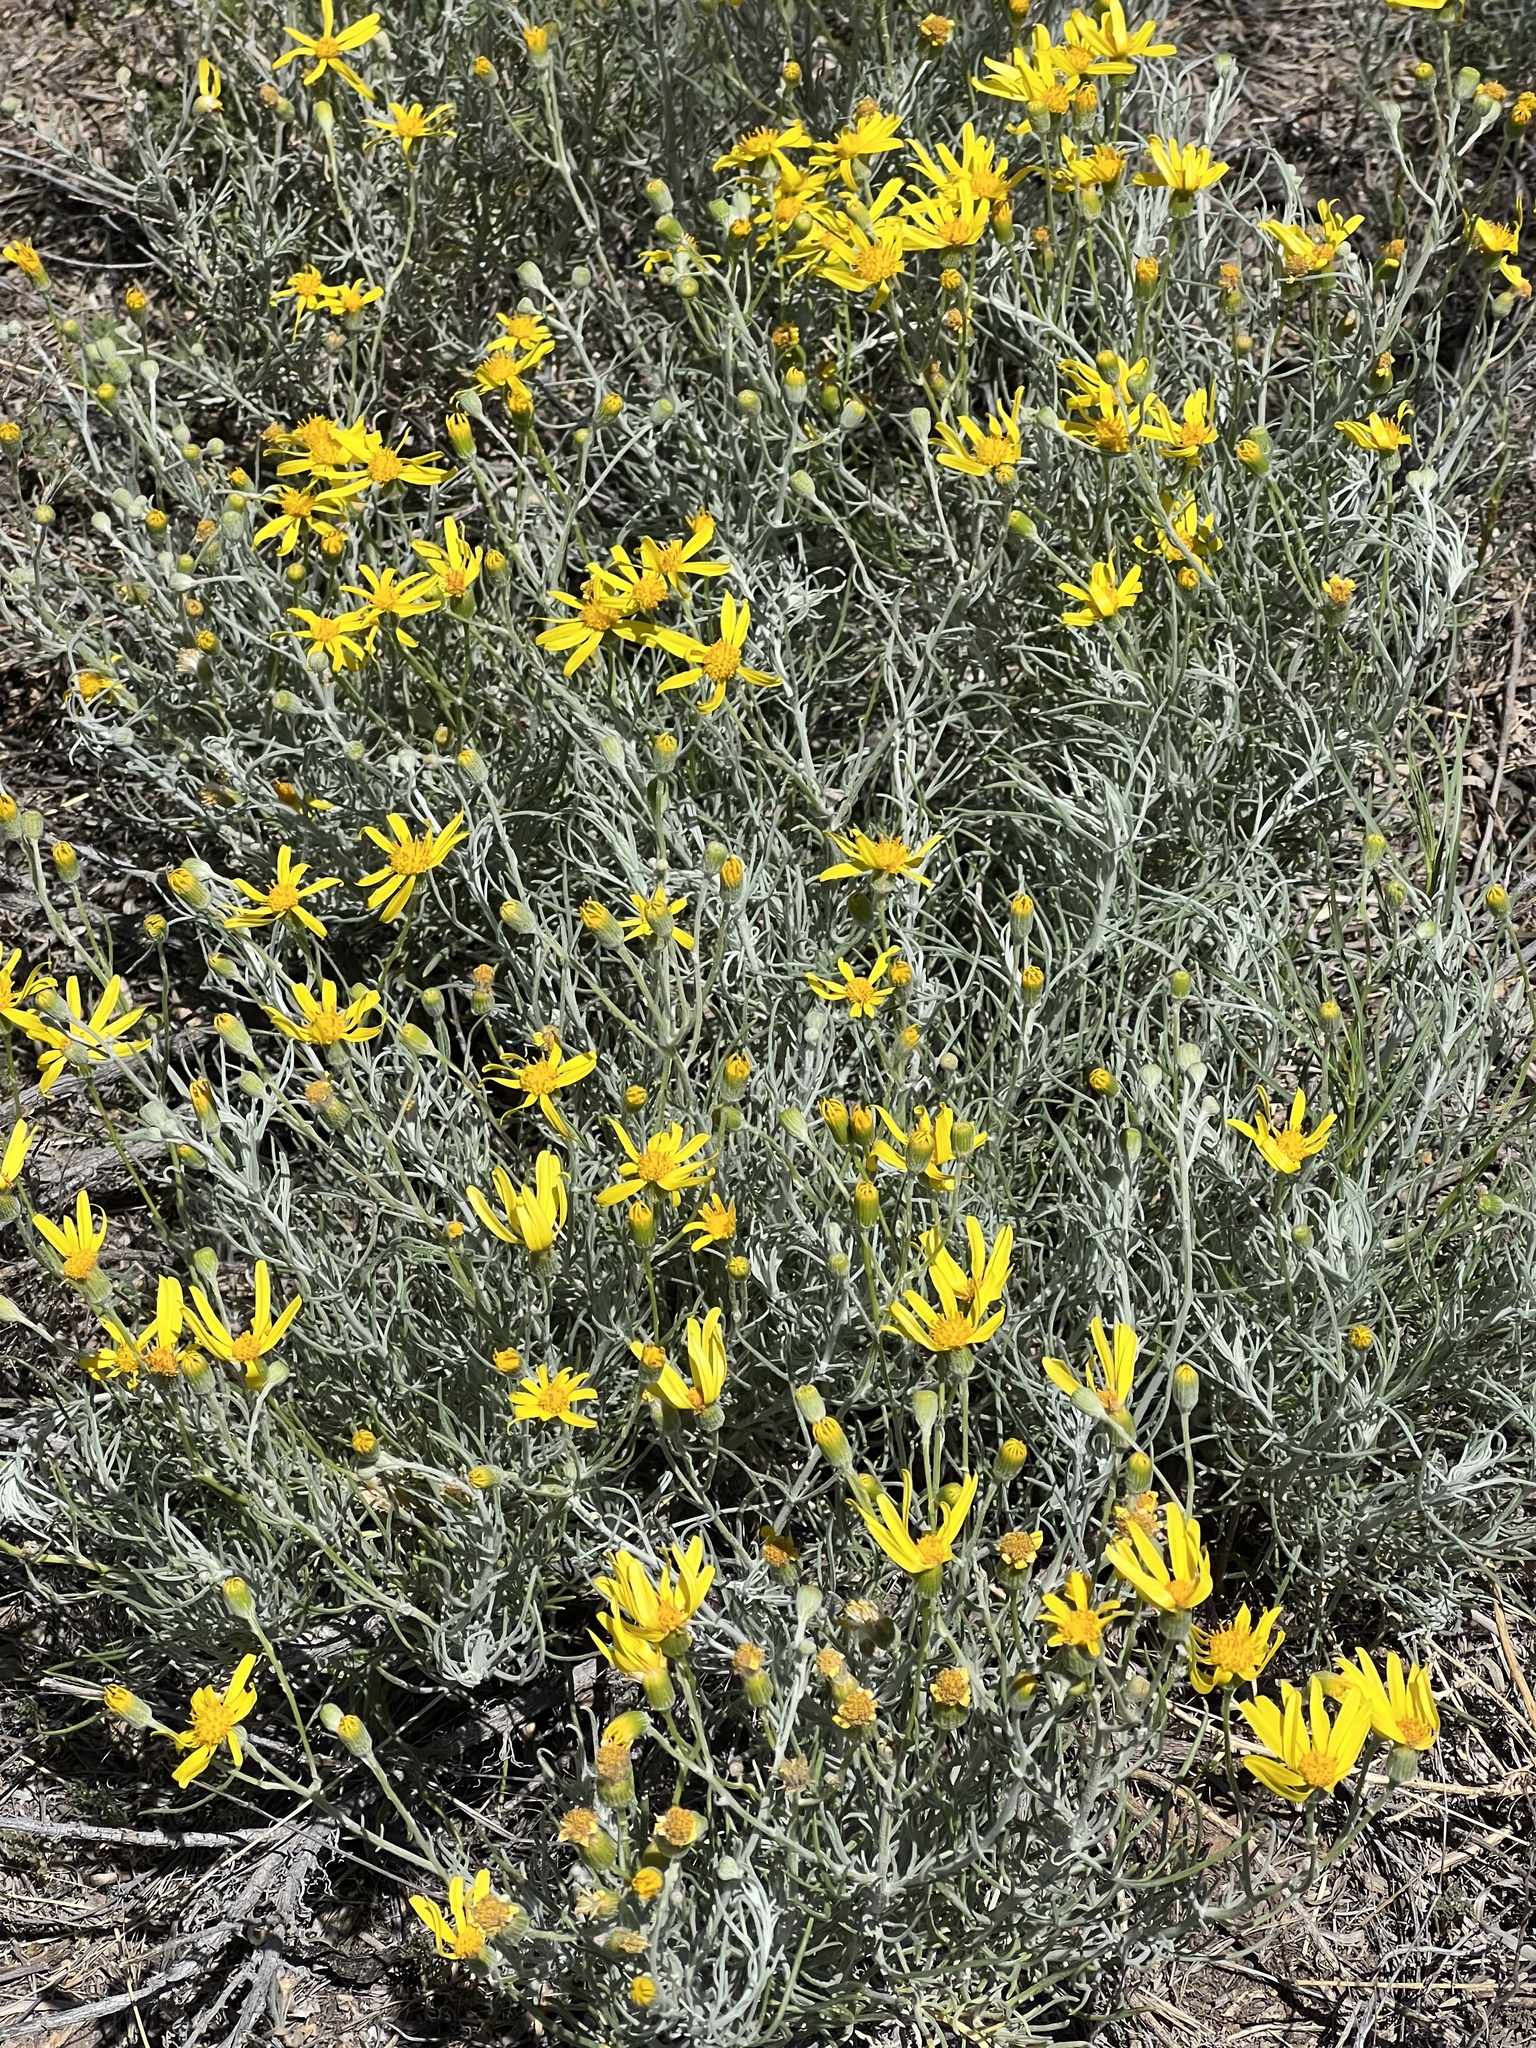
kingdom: Plantae
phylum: Tracheophyta
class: Magnoliopsida
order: Asterales
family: Asteraceae
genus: Senecio
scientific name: Senecio flaccidus
